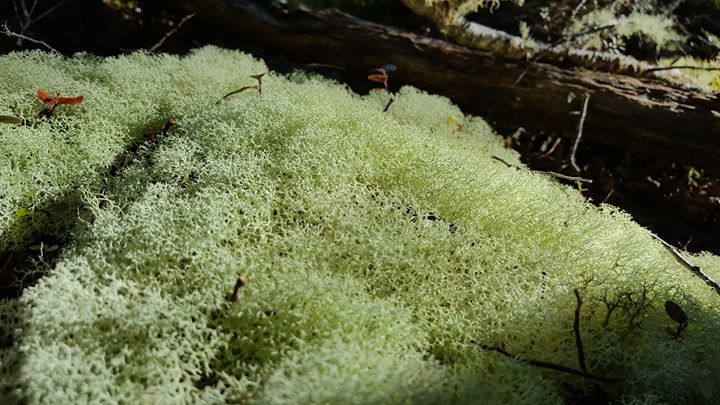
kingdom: Fungi
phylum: Ascomycota
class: Lecanoromycetes
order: Lecanorales
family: Cladoniaceae
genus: Cladonia
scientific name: Cladonia confusa
